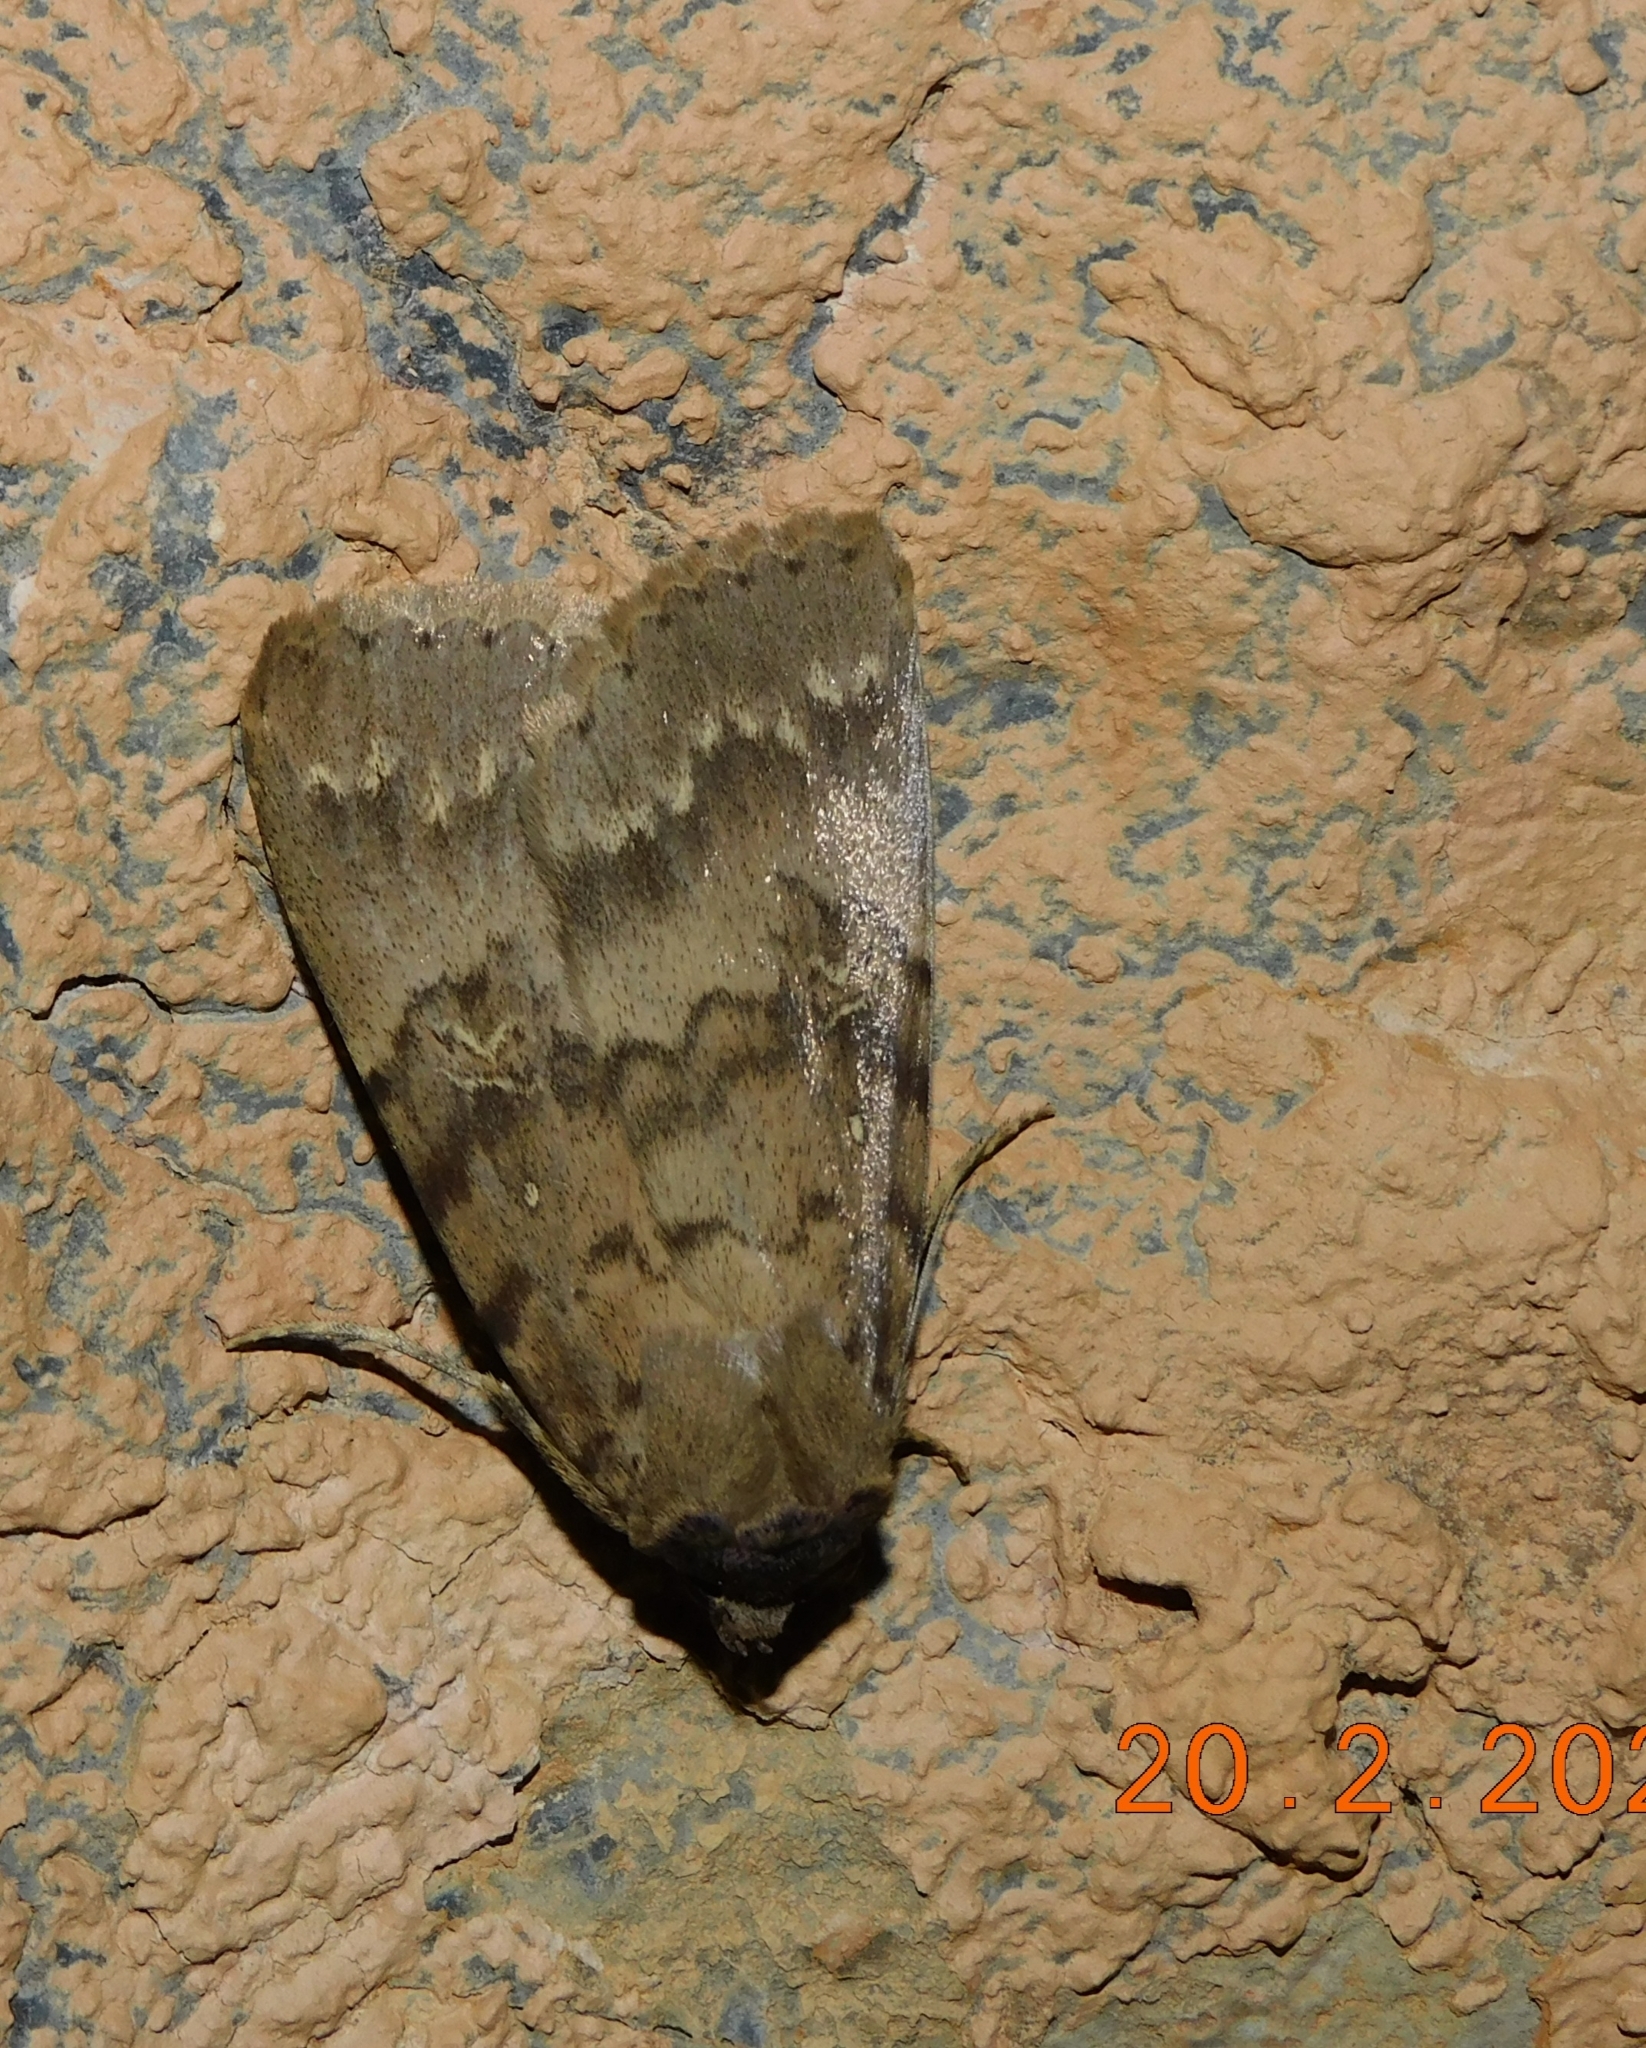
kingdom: Animalia
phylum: Arthropoda
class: Insecta
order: Lepidoptera
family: Erebidae
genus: Apopestes
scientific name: Apopestes spectrum
